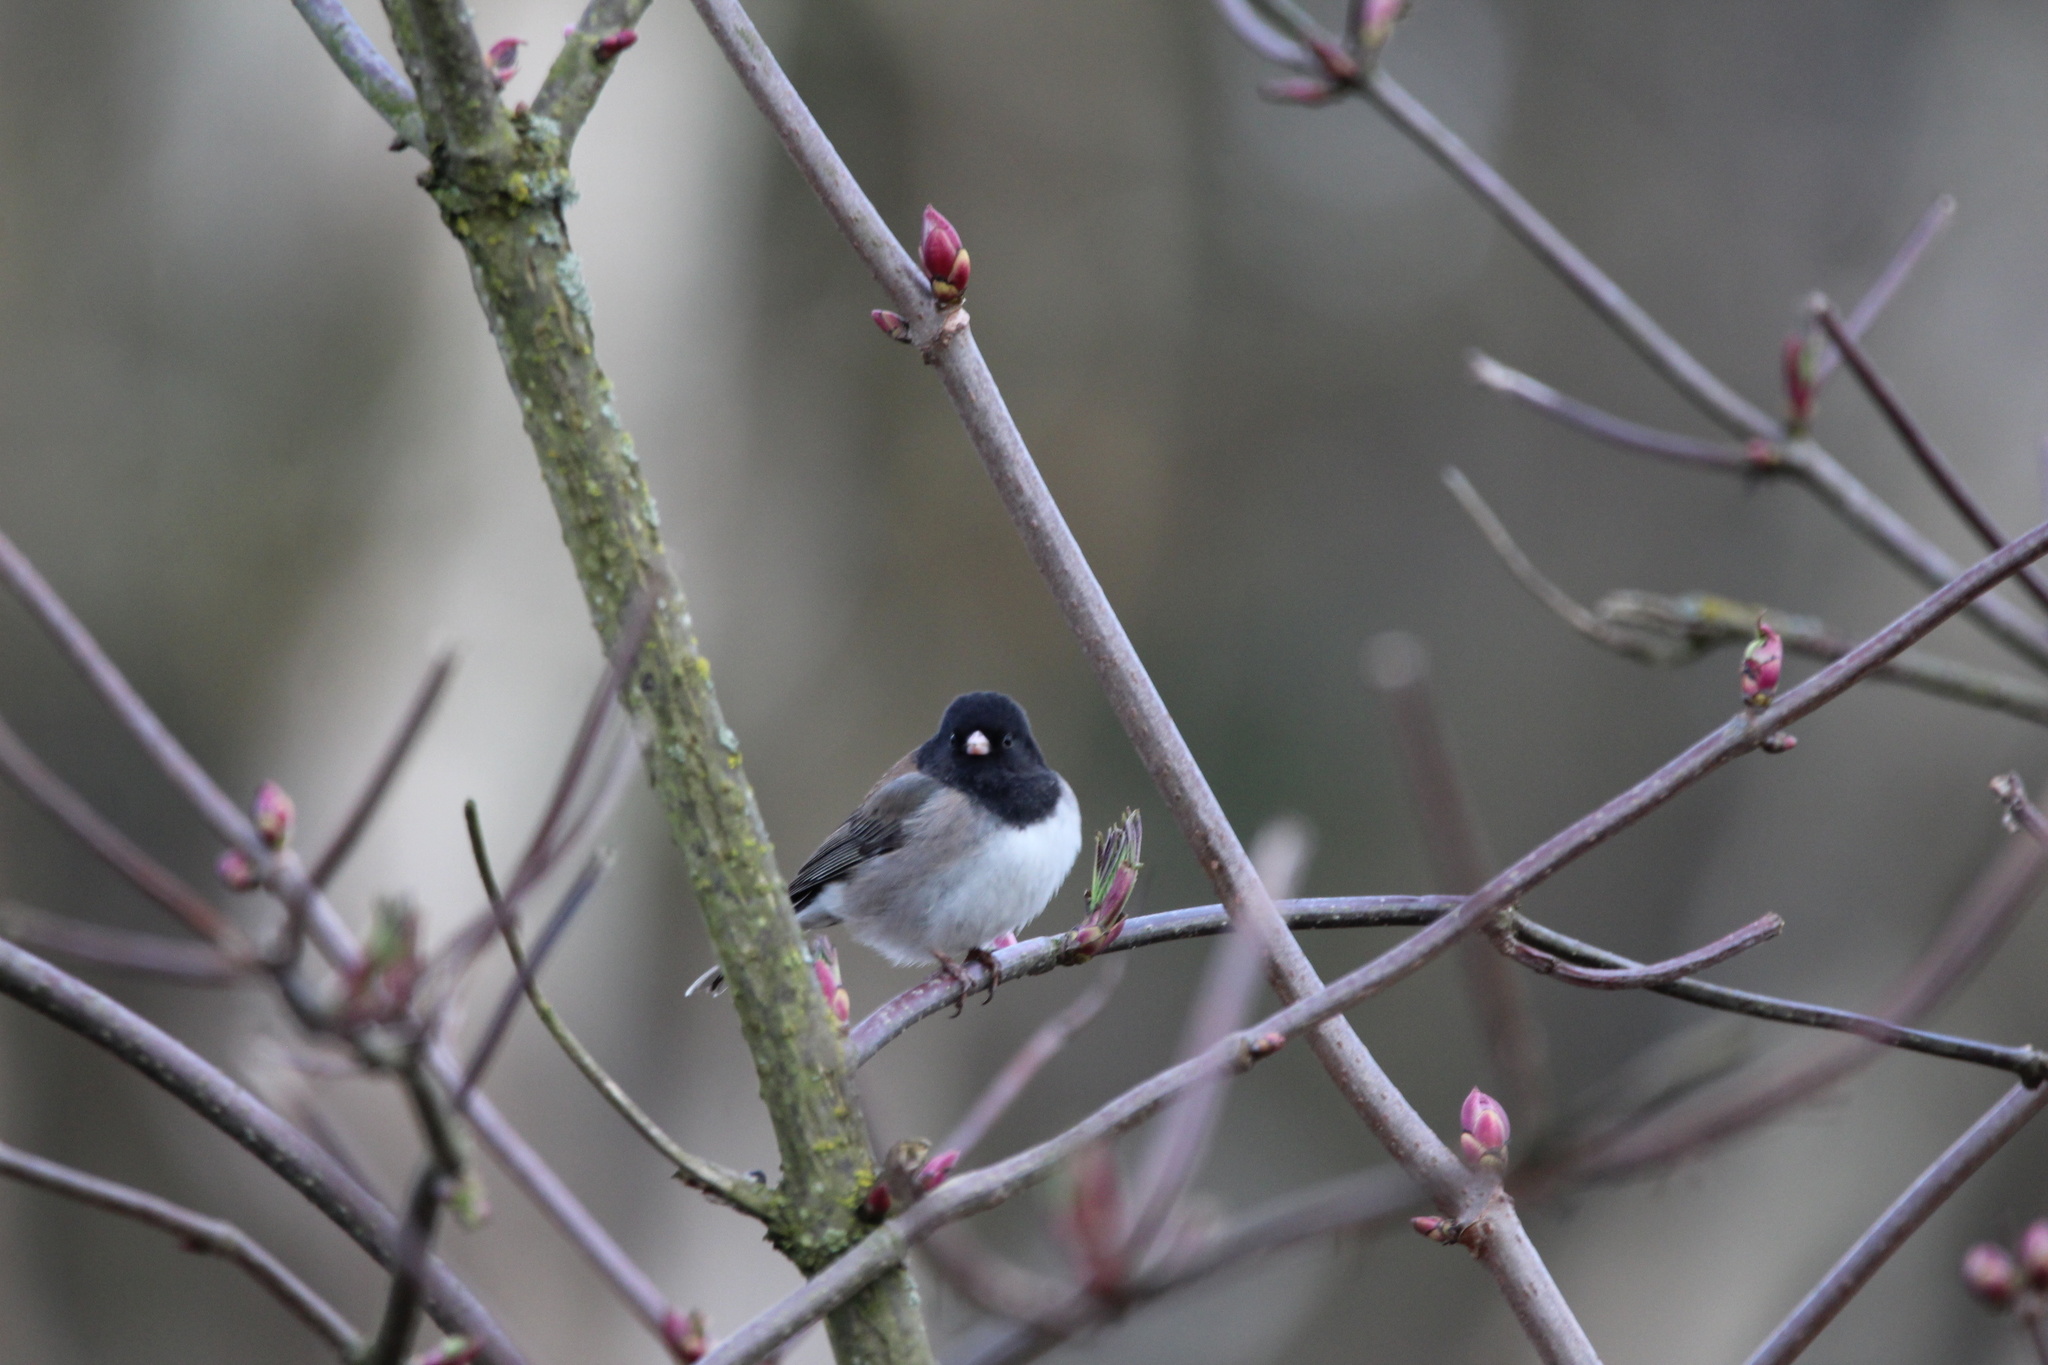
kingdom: Animalia
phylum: Chordata
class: Aves
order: Passeriformes
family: Passerellidae
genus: Junco
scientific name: Junco hyemalis
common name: Dark-eyed junco
